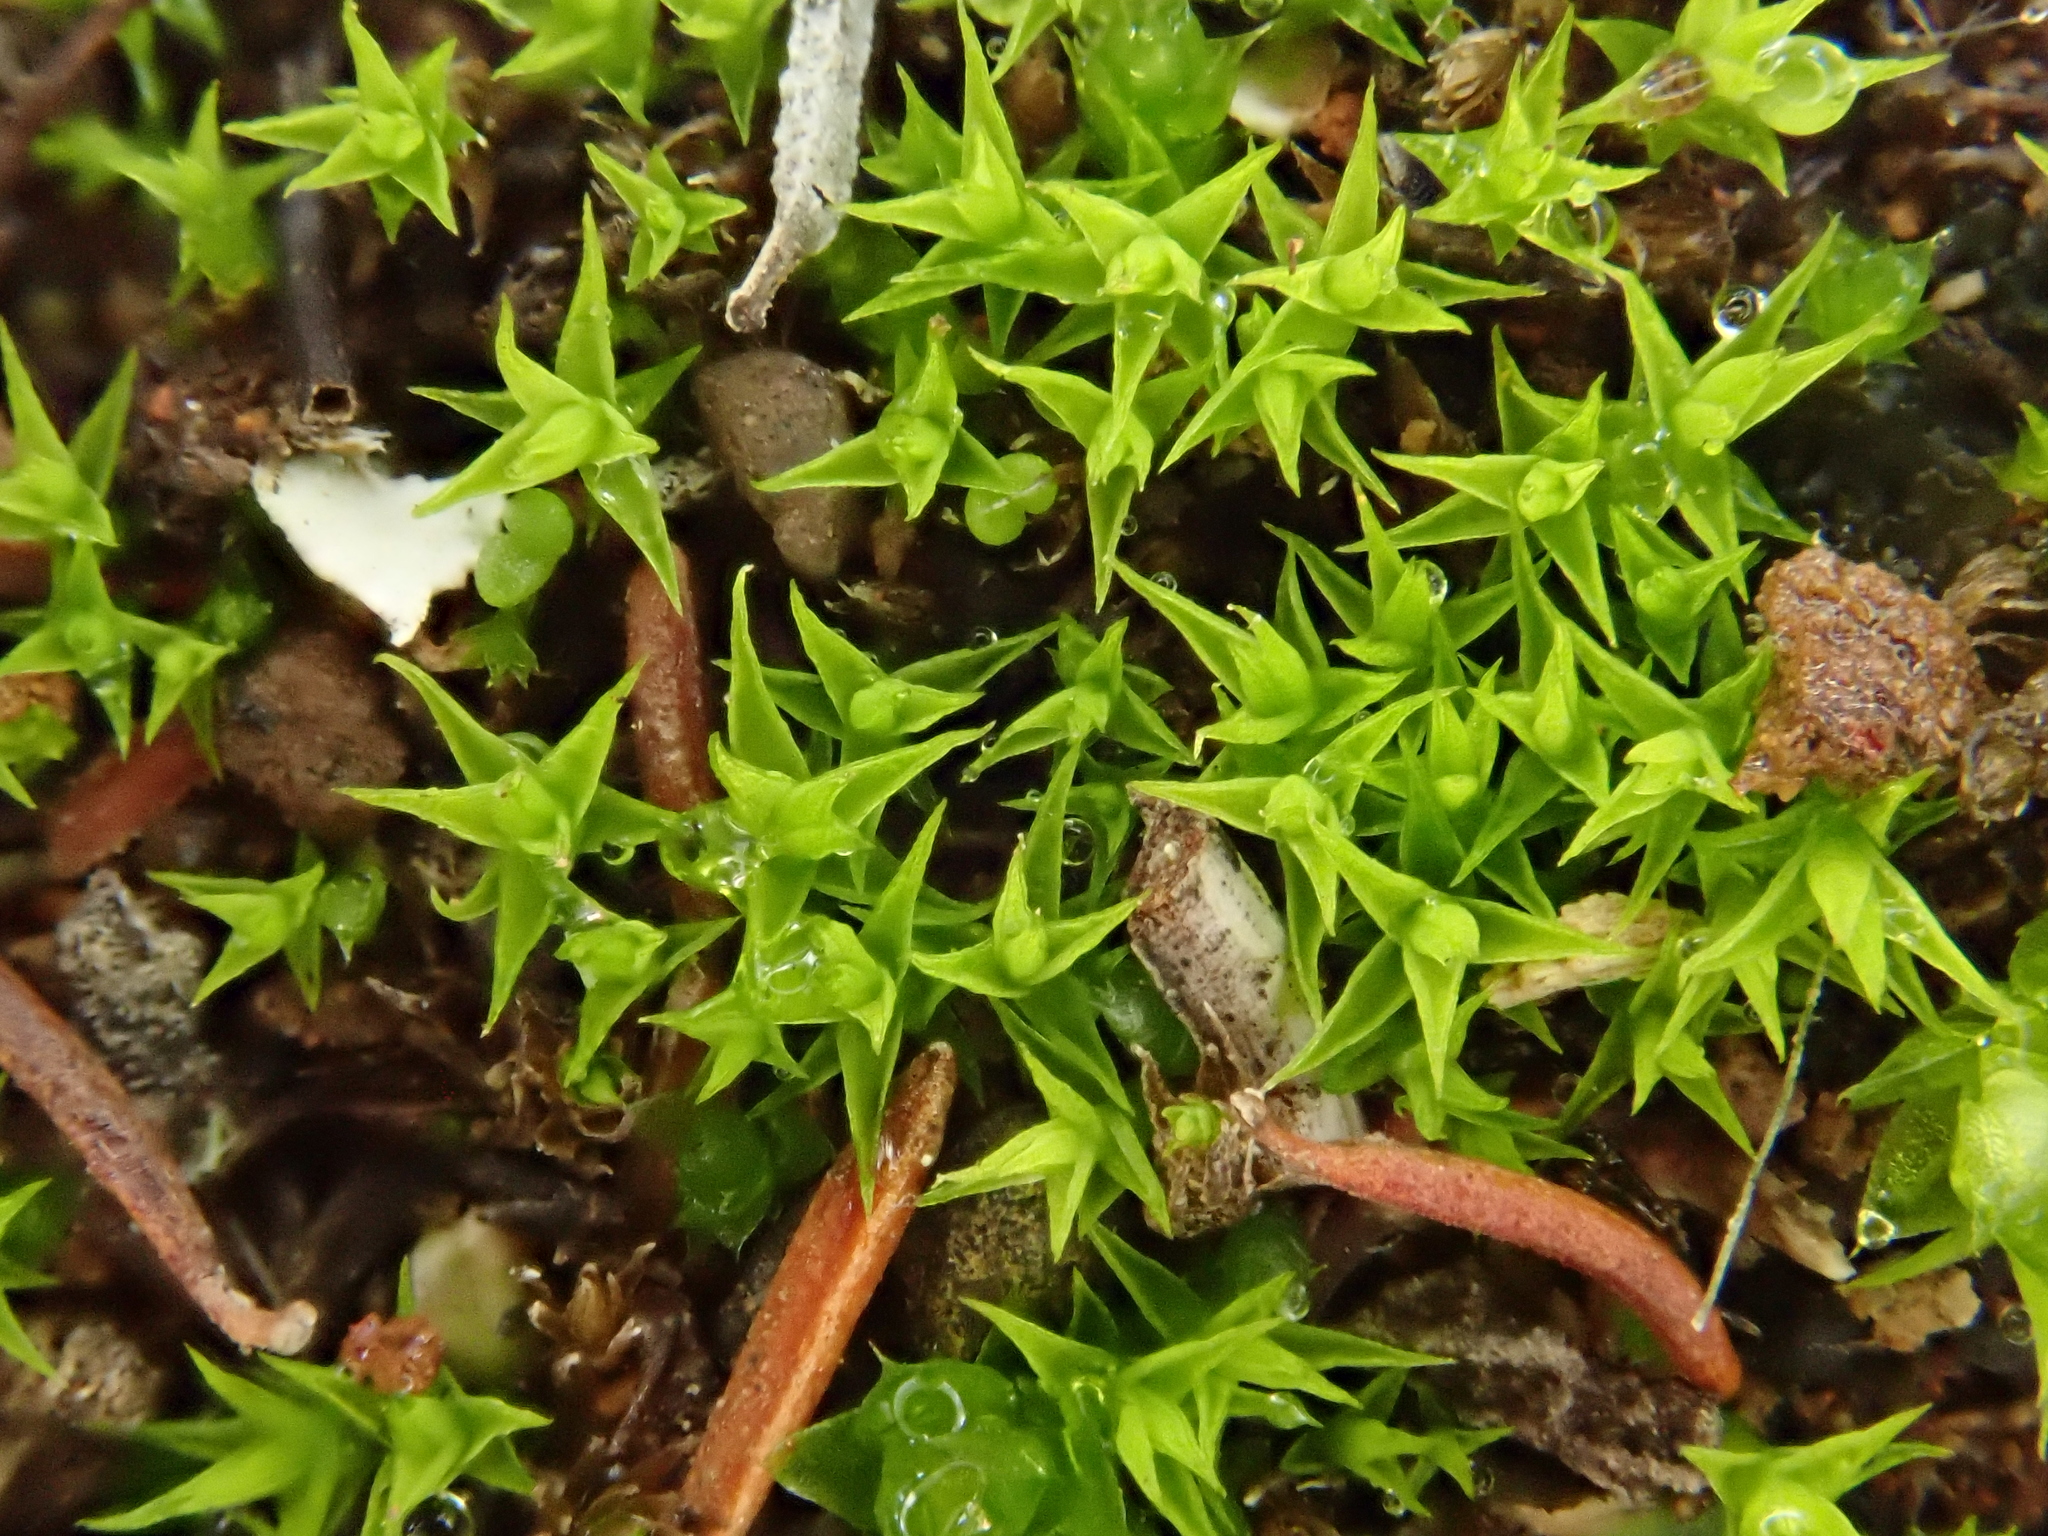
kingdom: Plantae
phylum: Bryophyta
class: Bryopsida
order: Dicranales
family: Ditrichaceae
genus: Cheilothela
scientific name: Cheilothela chloropus
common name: Rabbit moss
